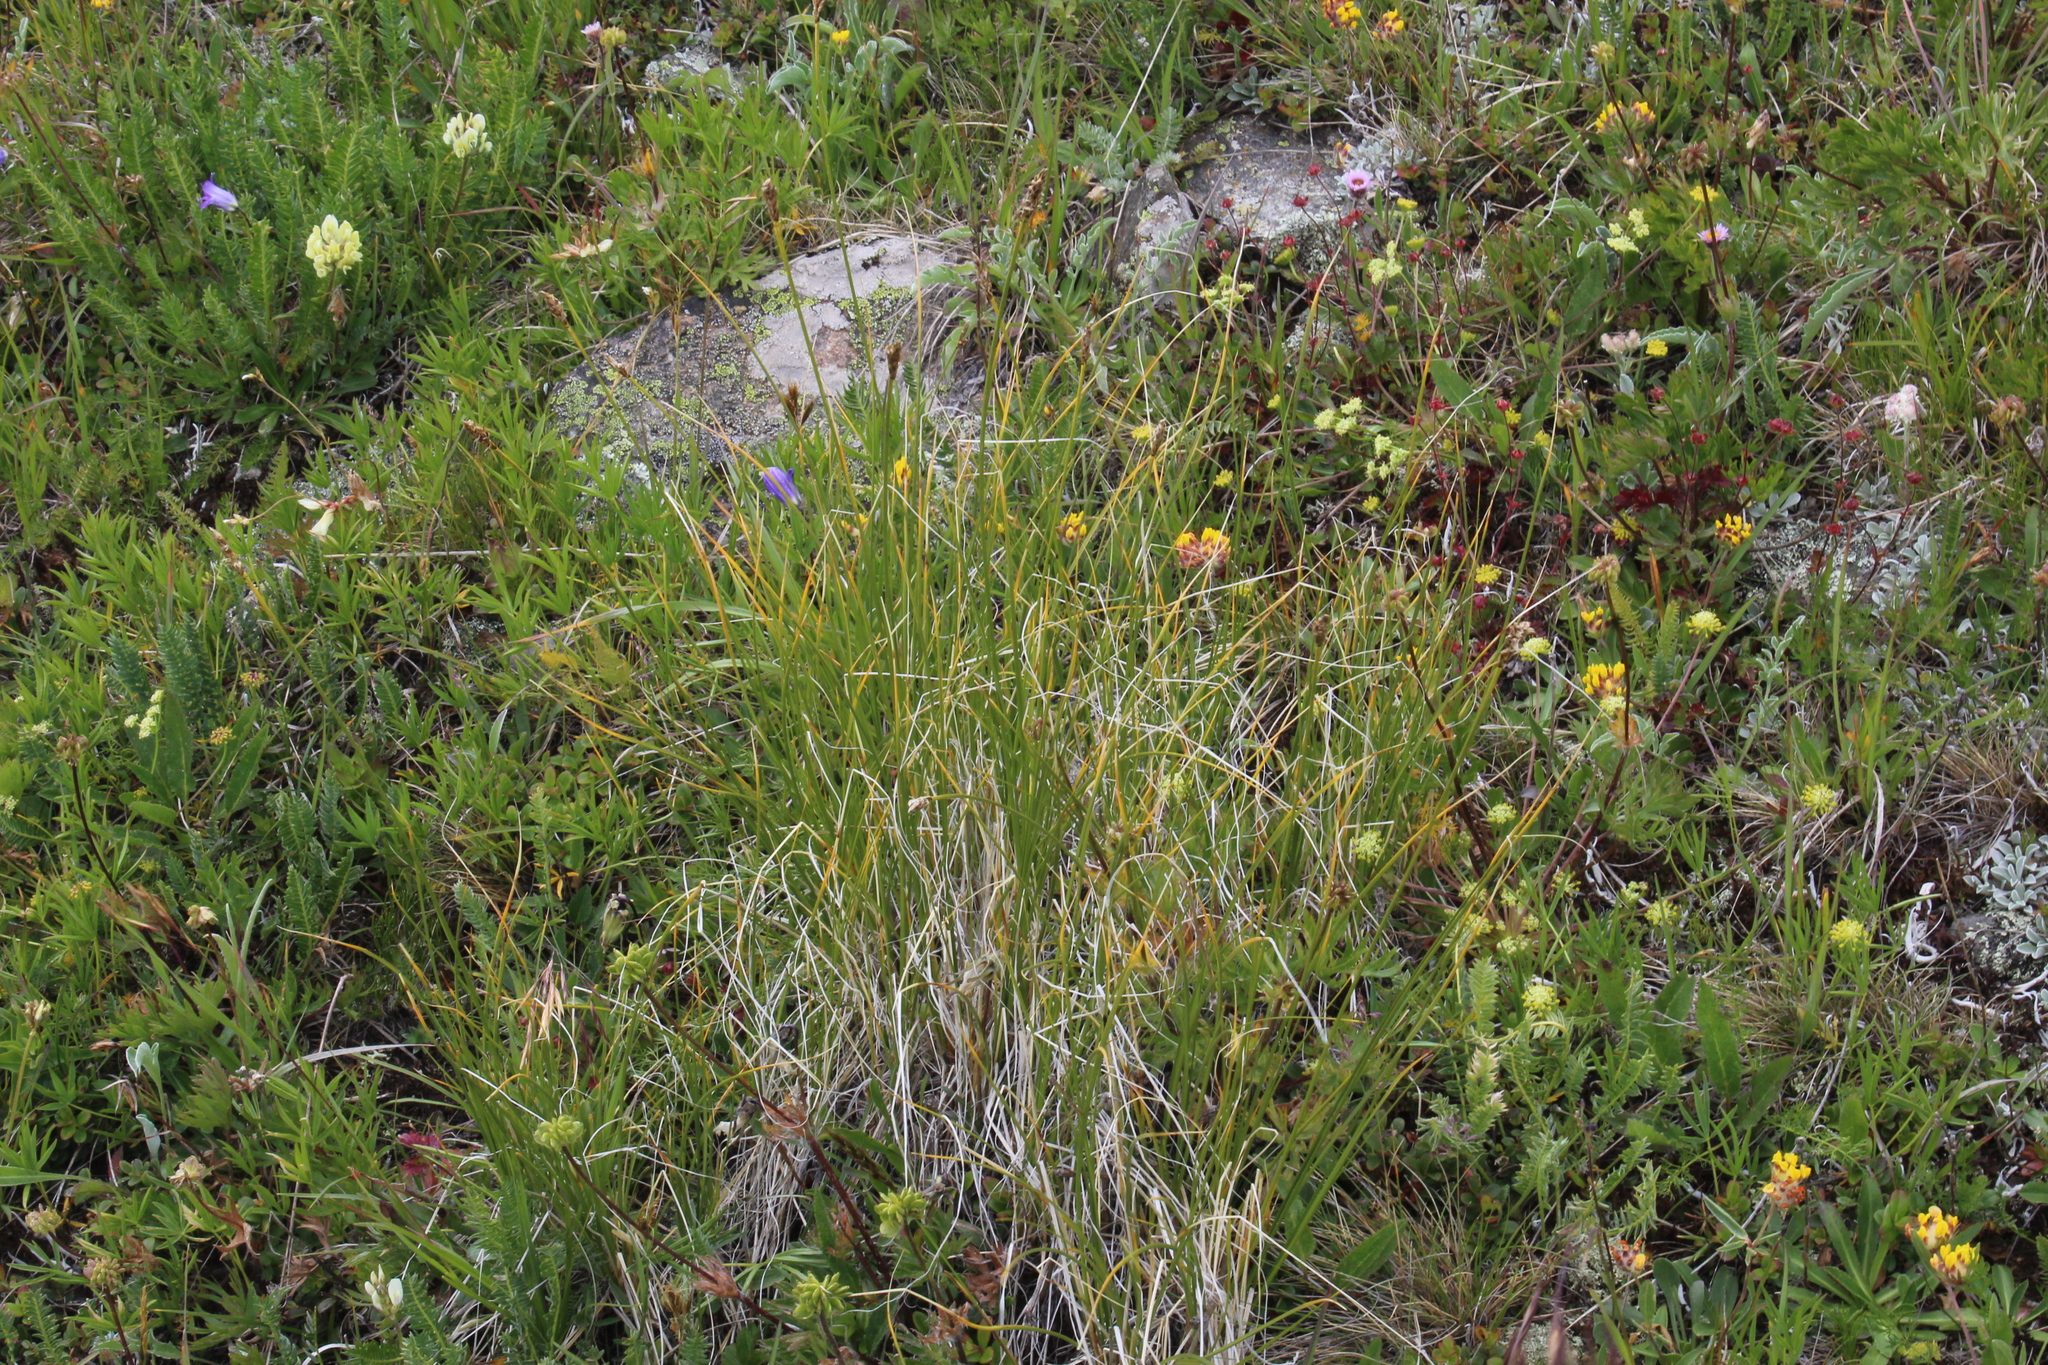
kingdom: Plantae
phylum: Tracheophyta
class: Liliopsida
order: Poales
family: Cyperaceae
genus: Carex
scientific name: Carex capillifolia
